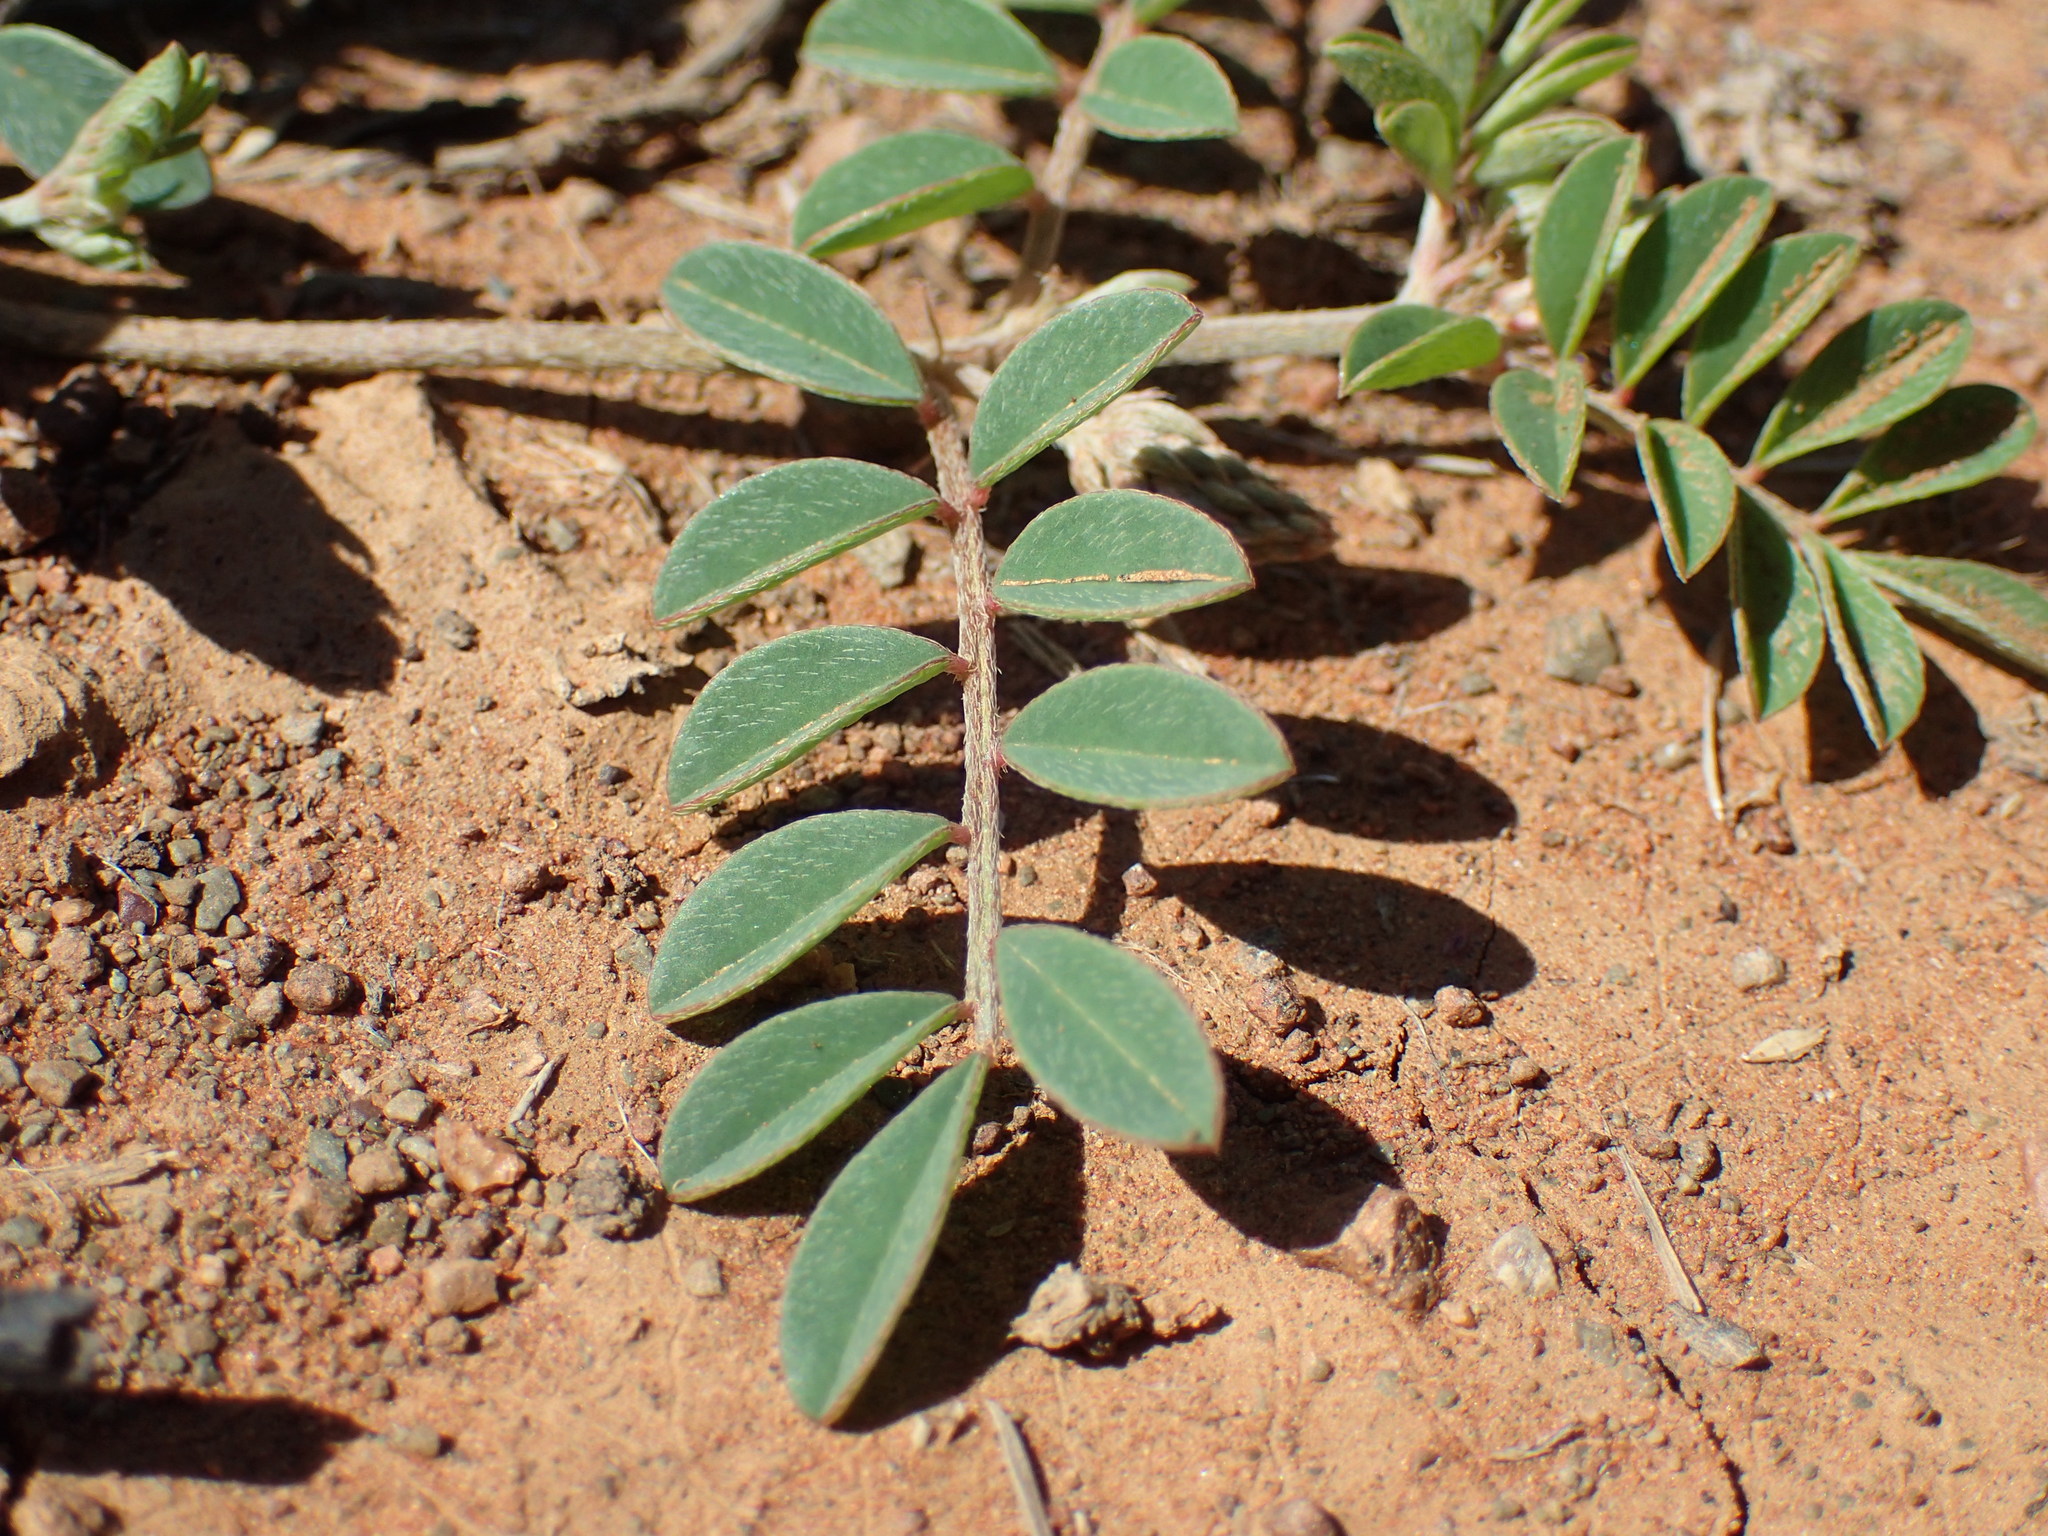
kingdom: Plantae
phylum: Tracheophyta
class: Magnoliopsida
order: Fabales
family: Fabaceae
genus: Indigofera
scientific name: Indigofera alternans
